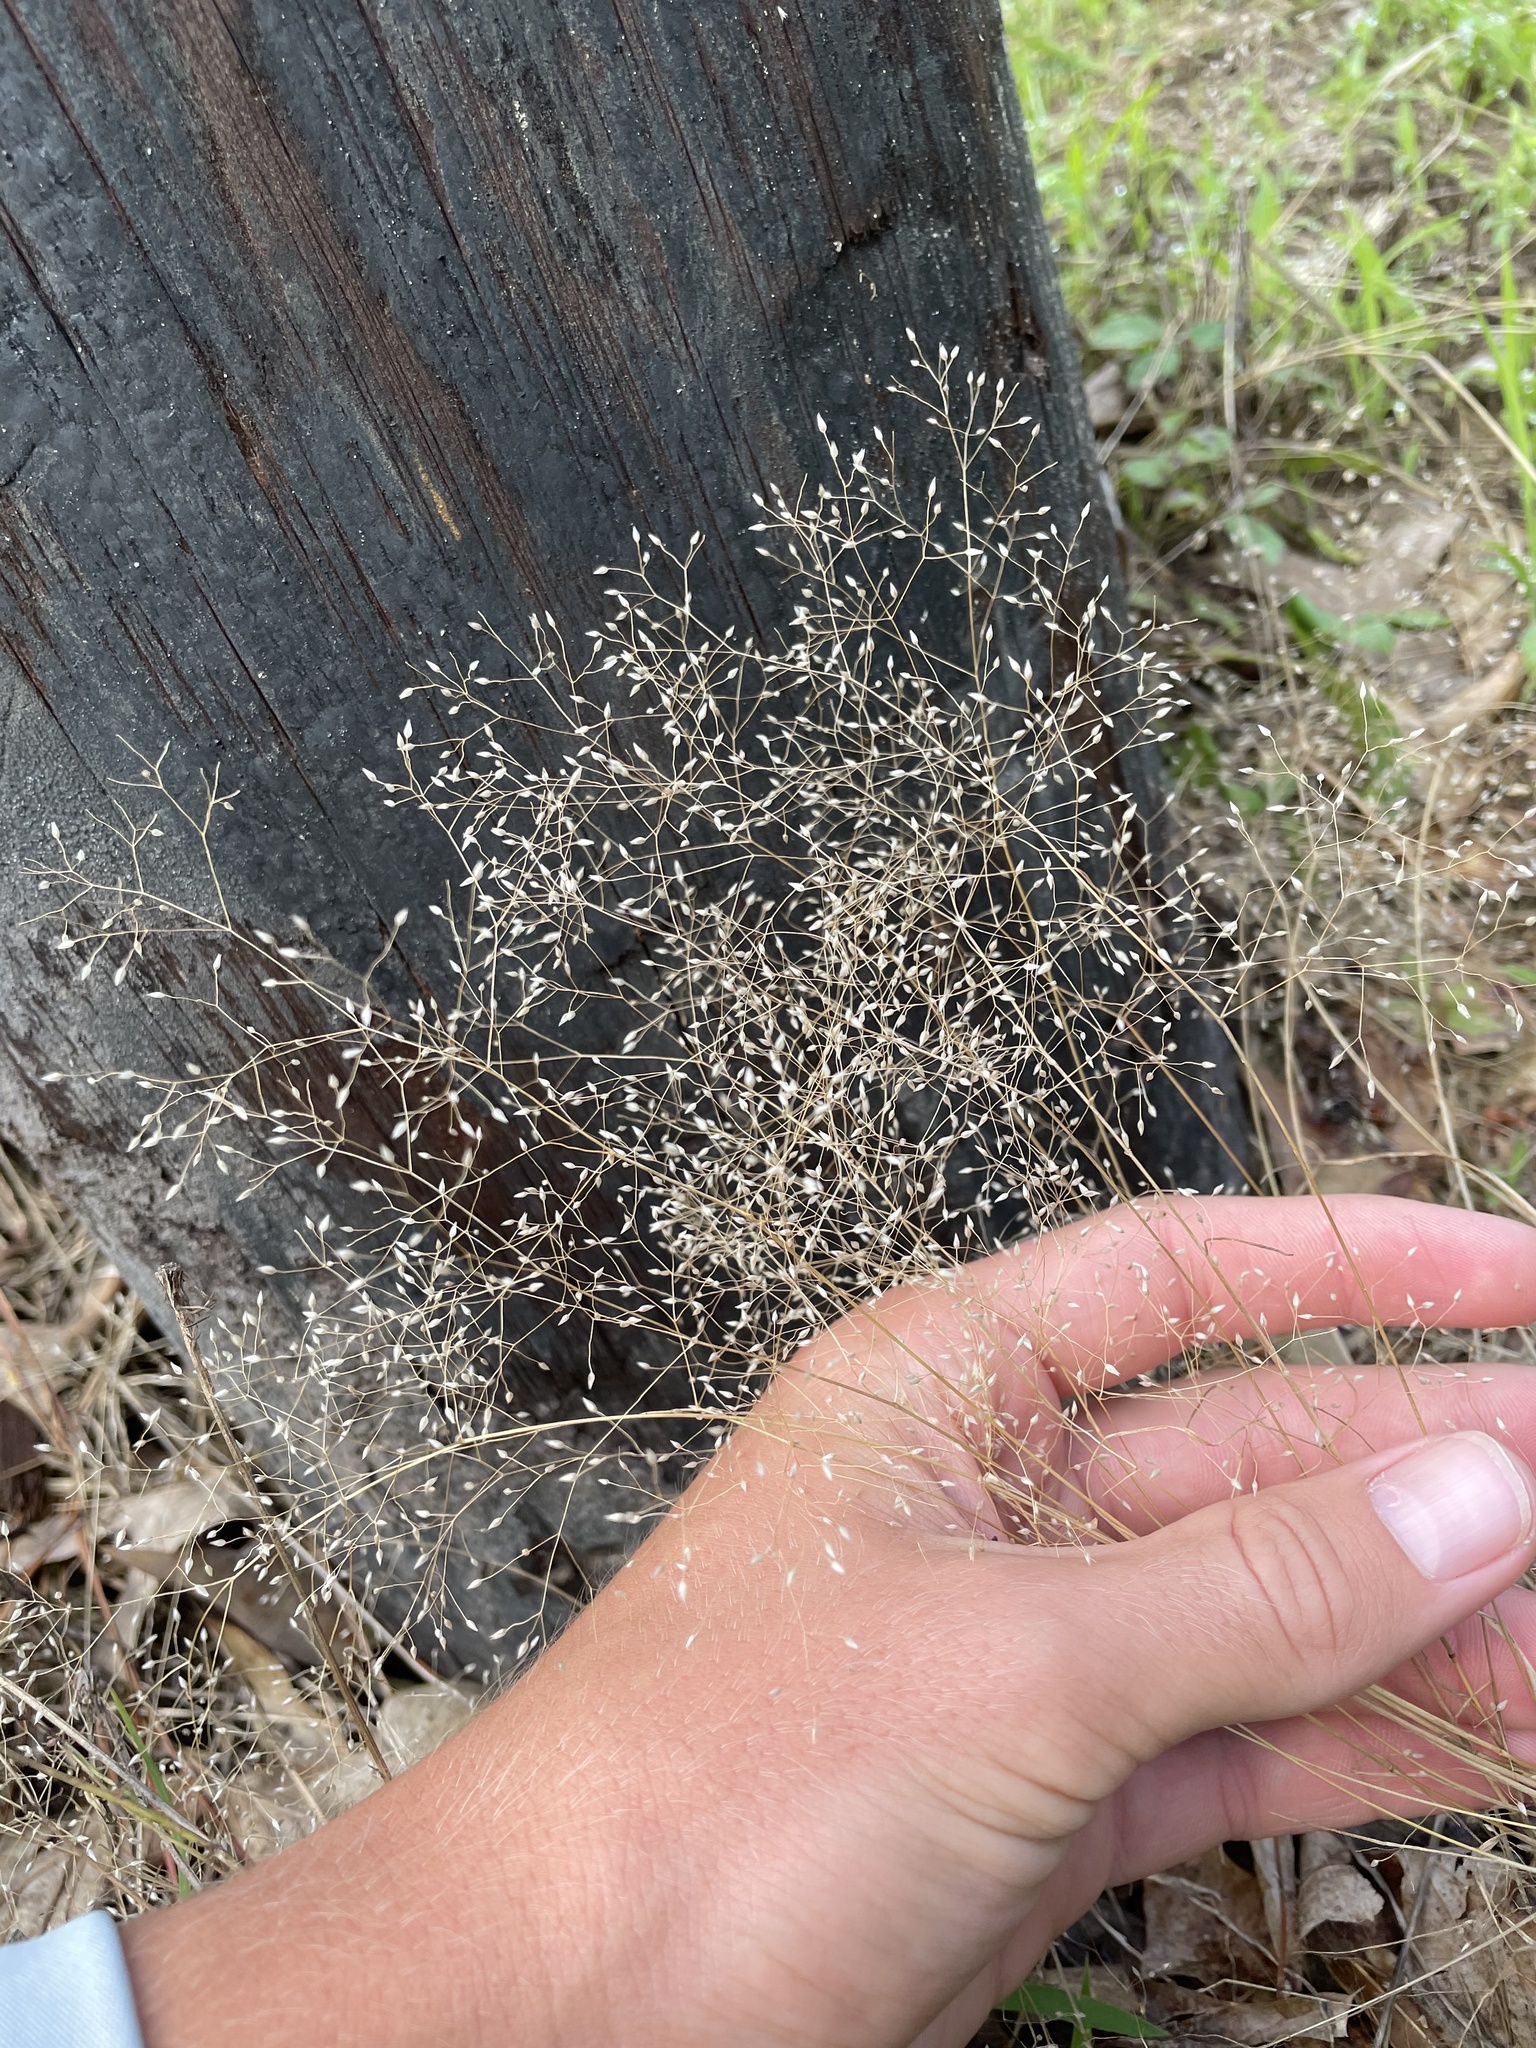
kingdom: Plantae
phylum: Tracheophyta
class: Liliopsida
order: Poales
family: Poaceae
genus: Aira
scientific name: Aira caryophyllea
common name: Silver hairgrass
